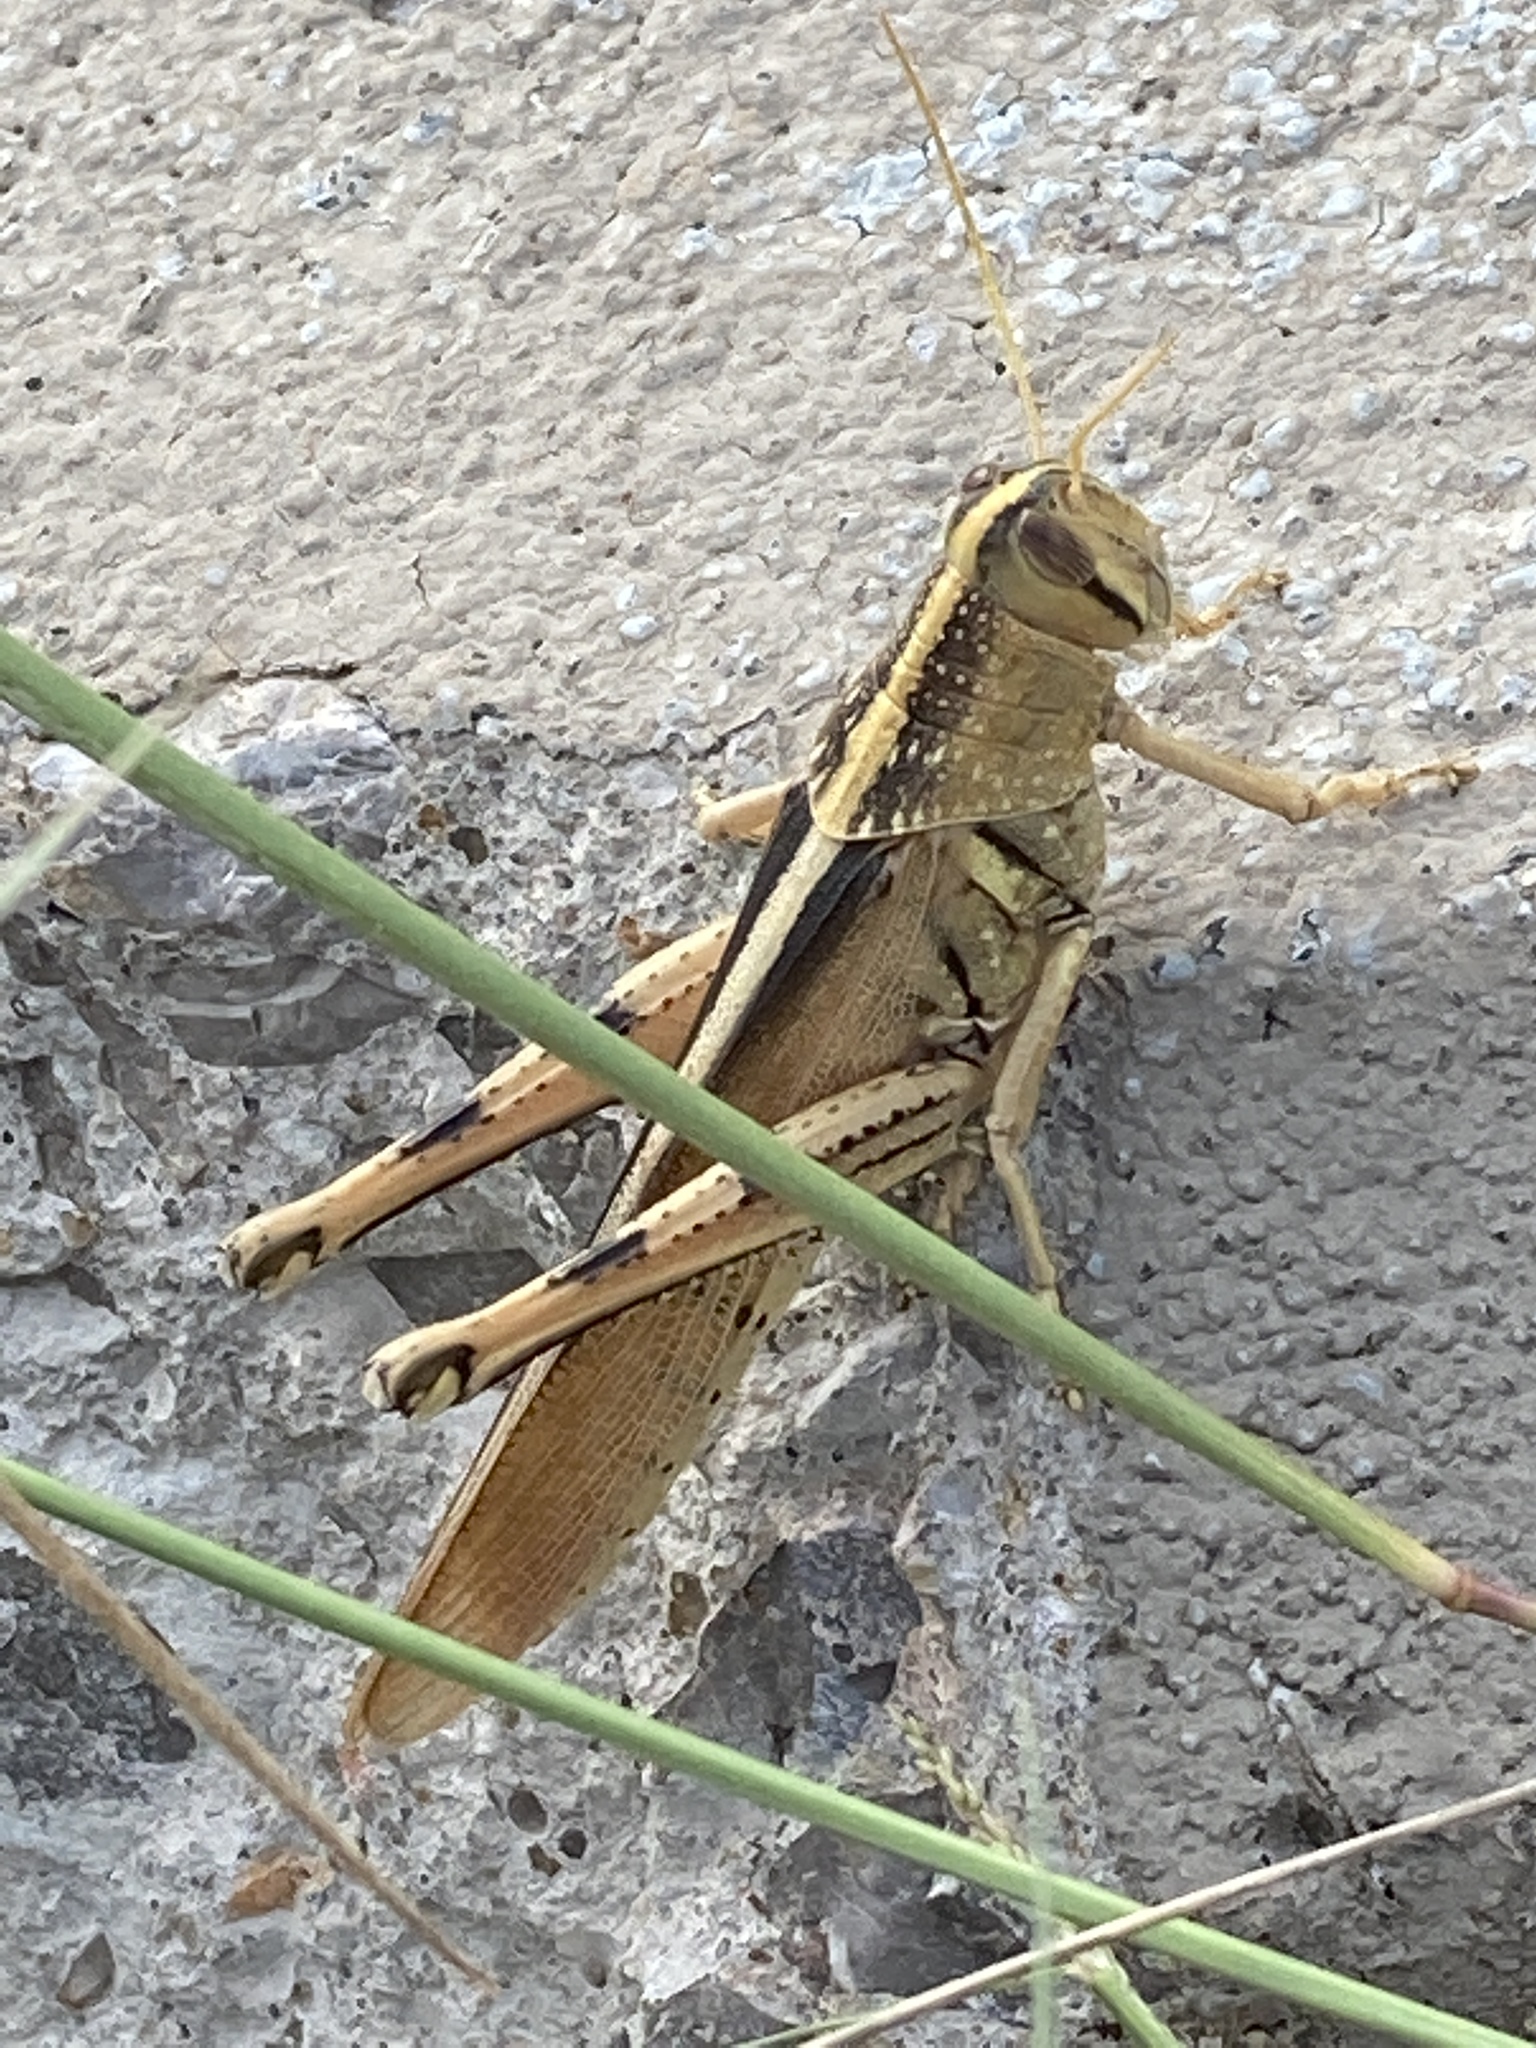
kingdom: Animalia
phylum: Arthropoda
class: Insecta
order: Orthoptera
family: Acrididae
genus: Schistocerca
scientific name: Schistocerca lineata
